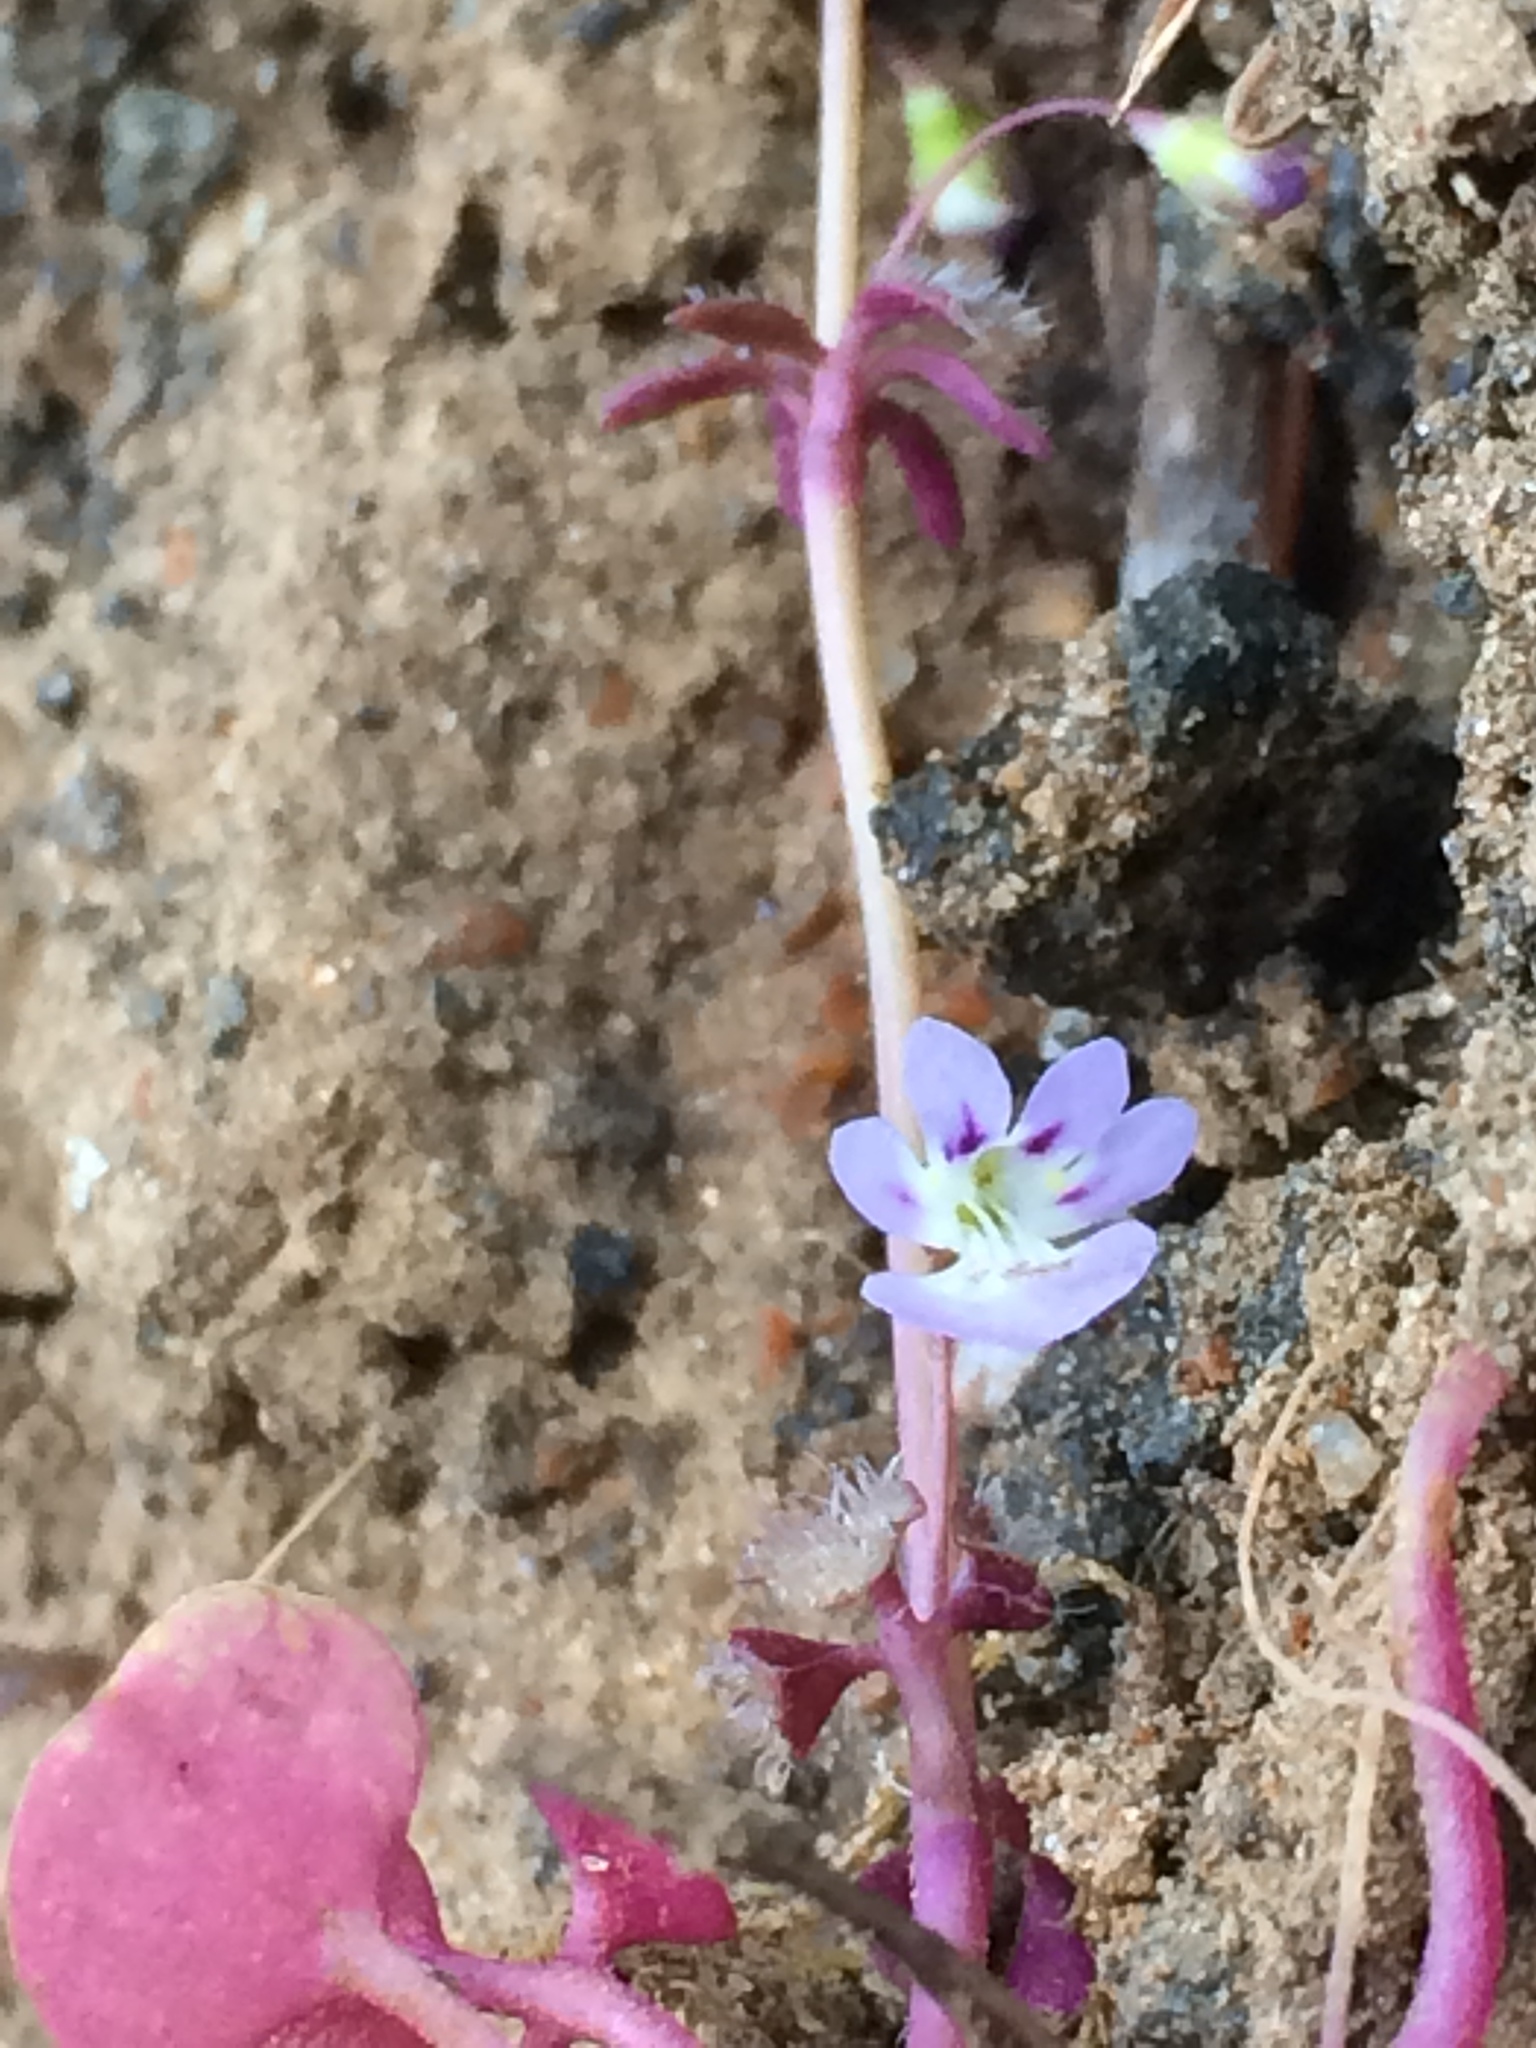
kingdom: Plantae
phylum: Tracheophyta
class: Magnoliopsida
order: Lamiales
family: Plantaginaceae
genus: Tonella
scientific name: Tonella tenella
